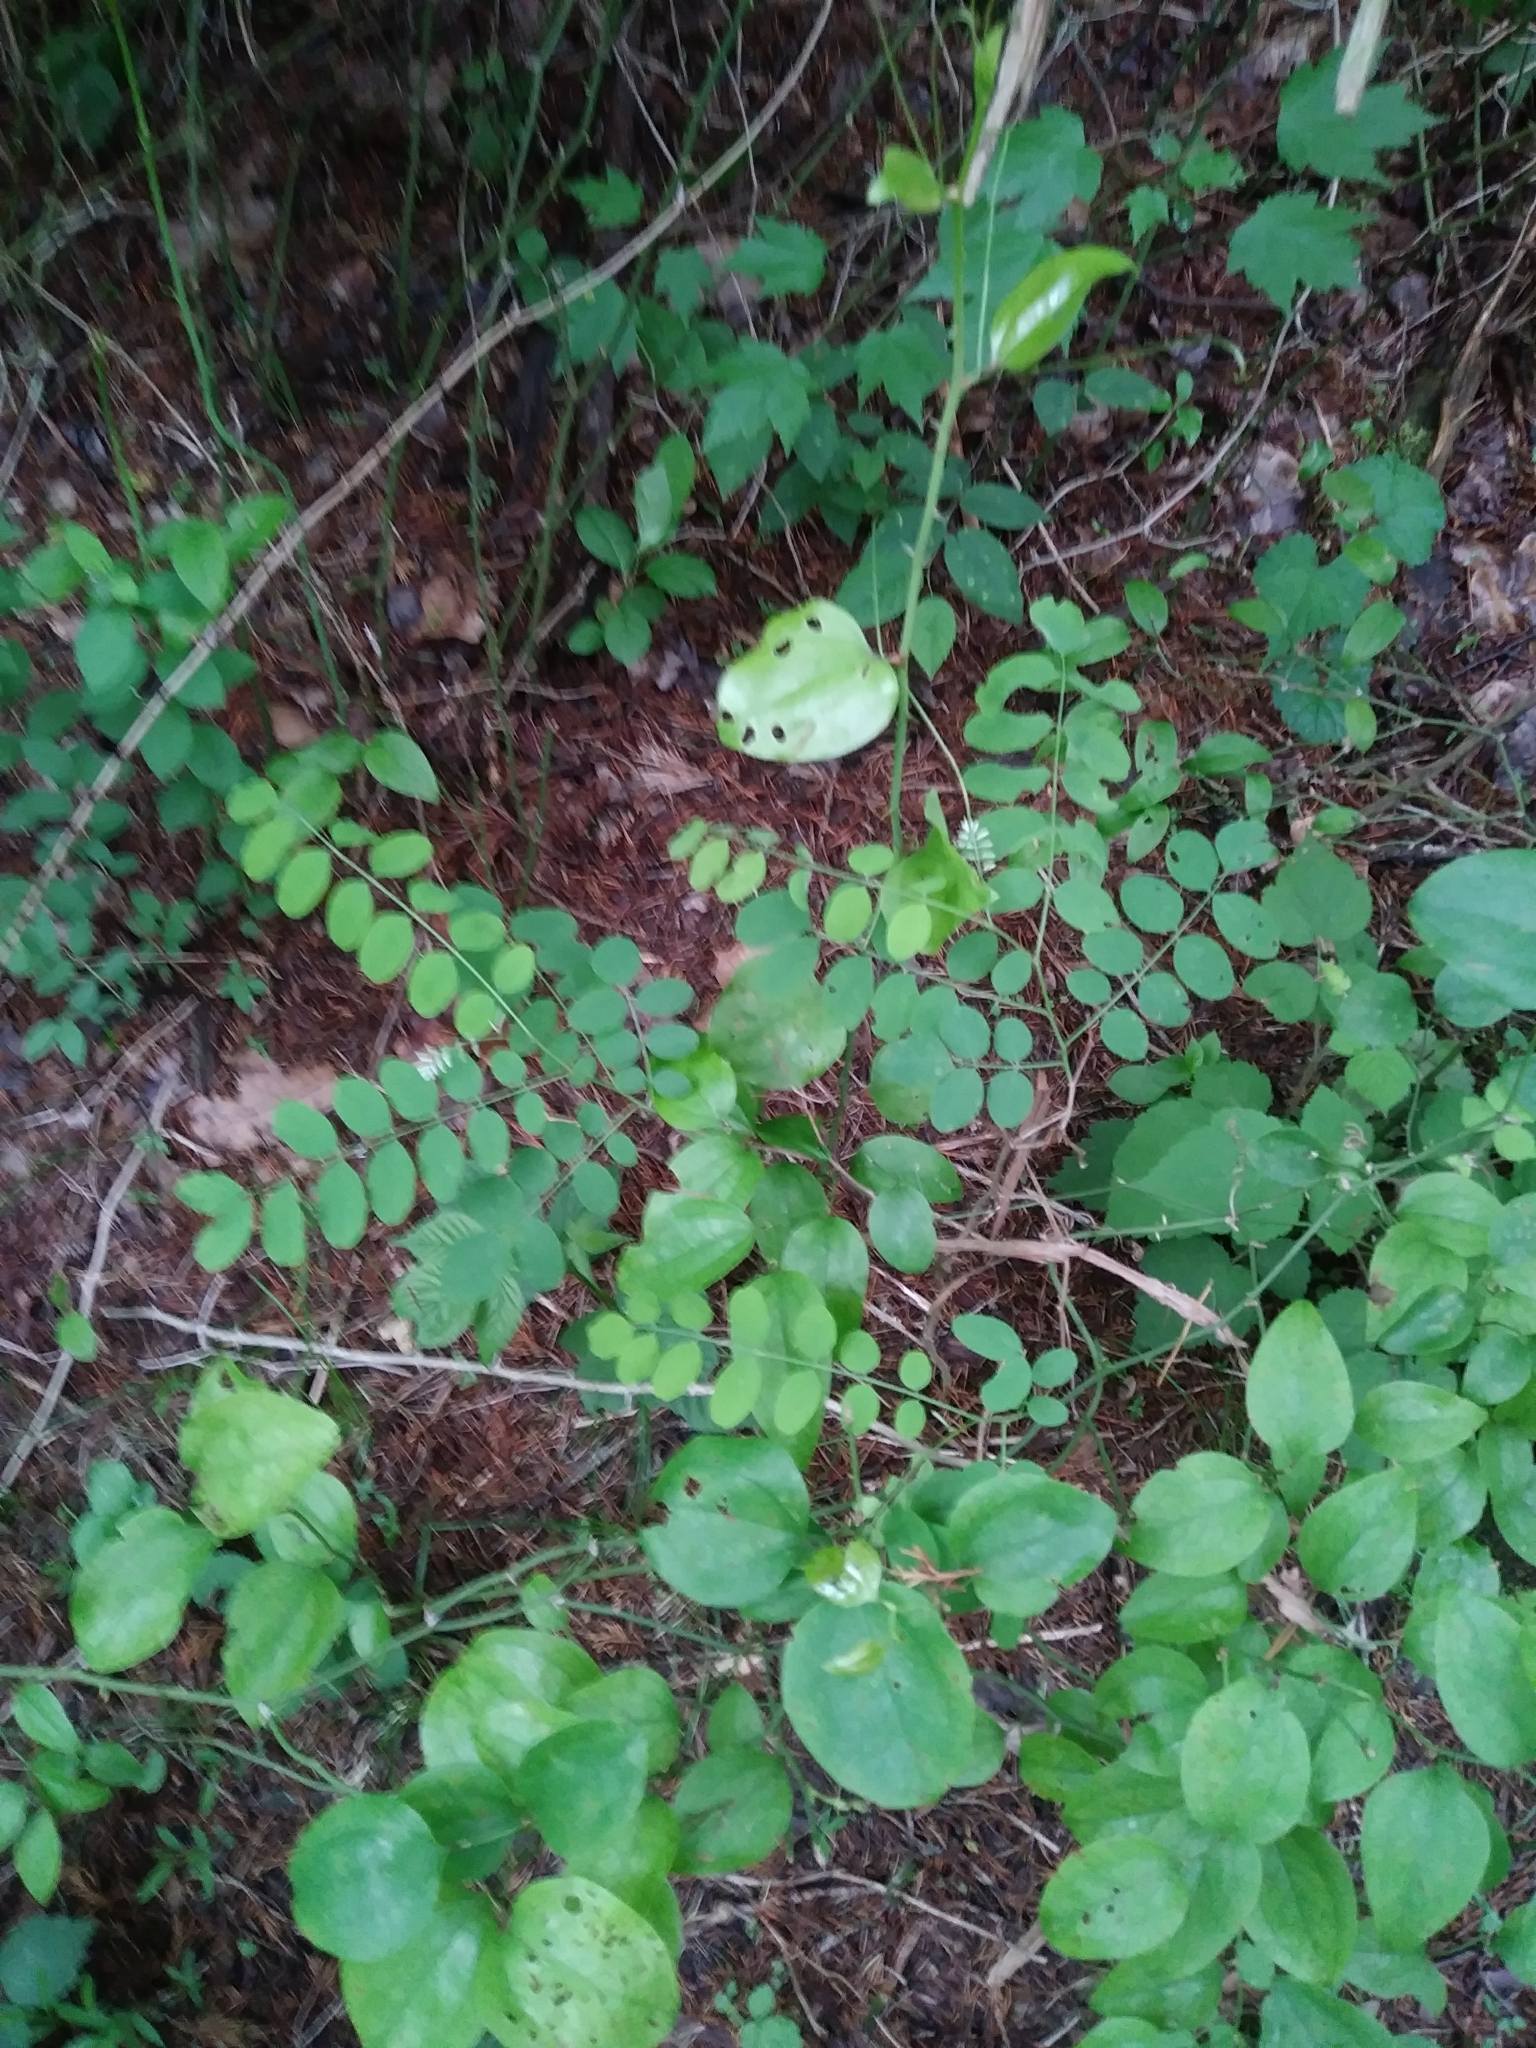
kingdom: Plantae
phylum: Tracheophyta
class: Magnoliopsida
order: Fabales
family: Fabaceae
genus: Robinia
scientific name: Robinia pseudoacacia
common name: Black locust
